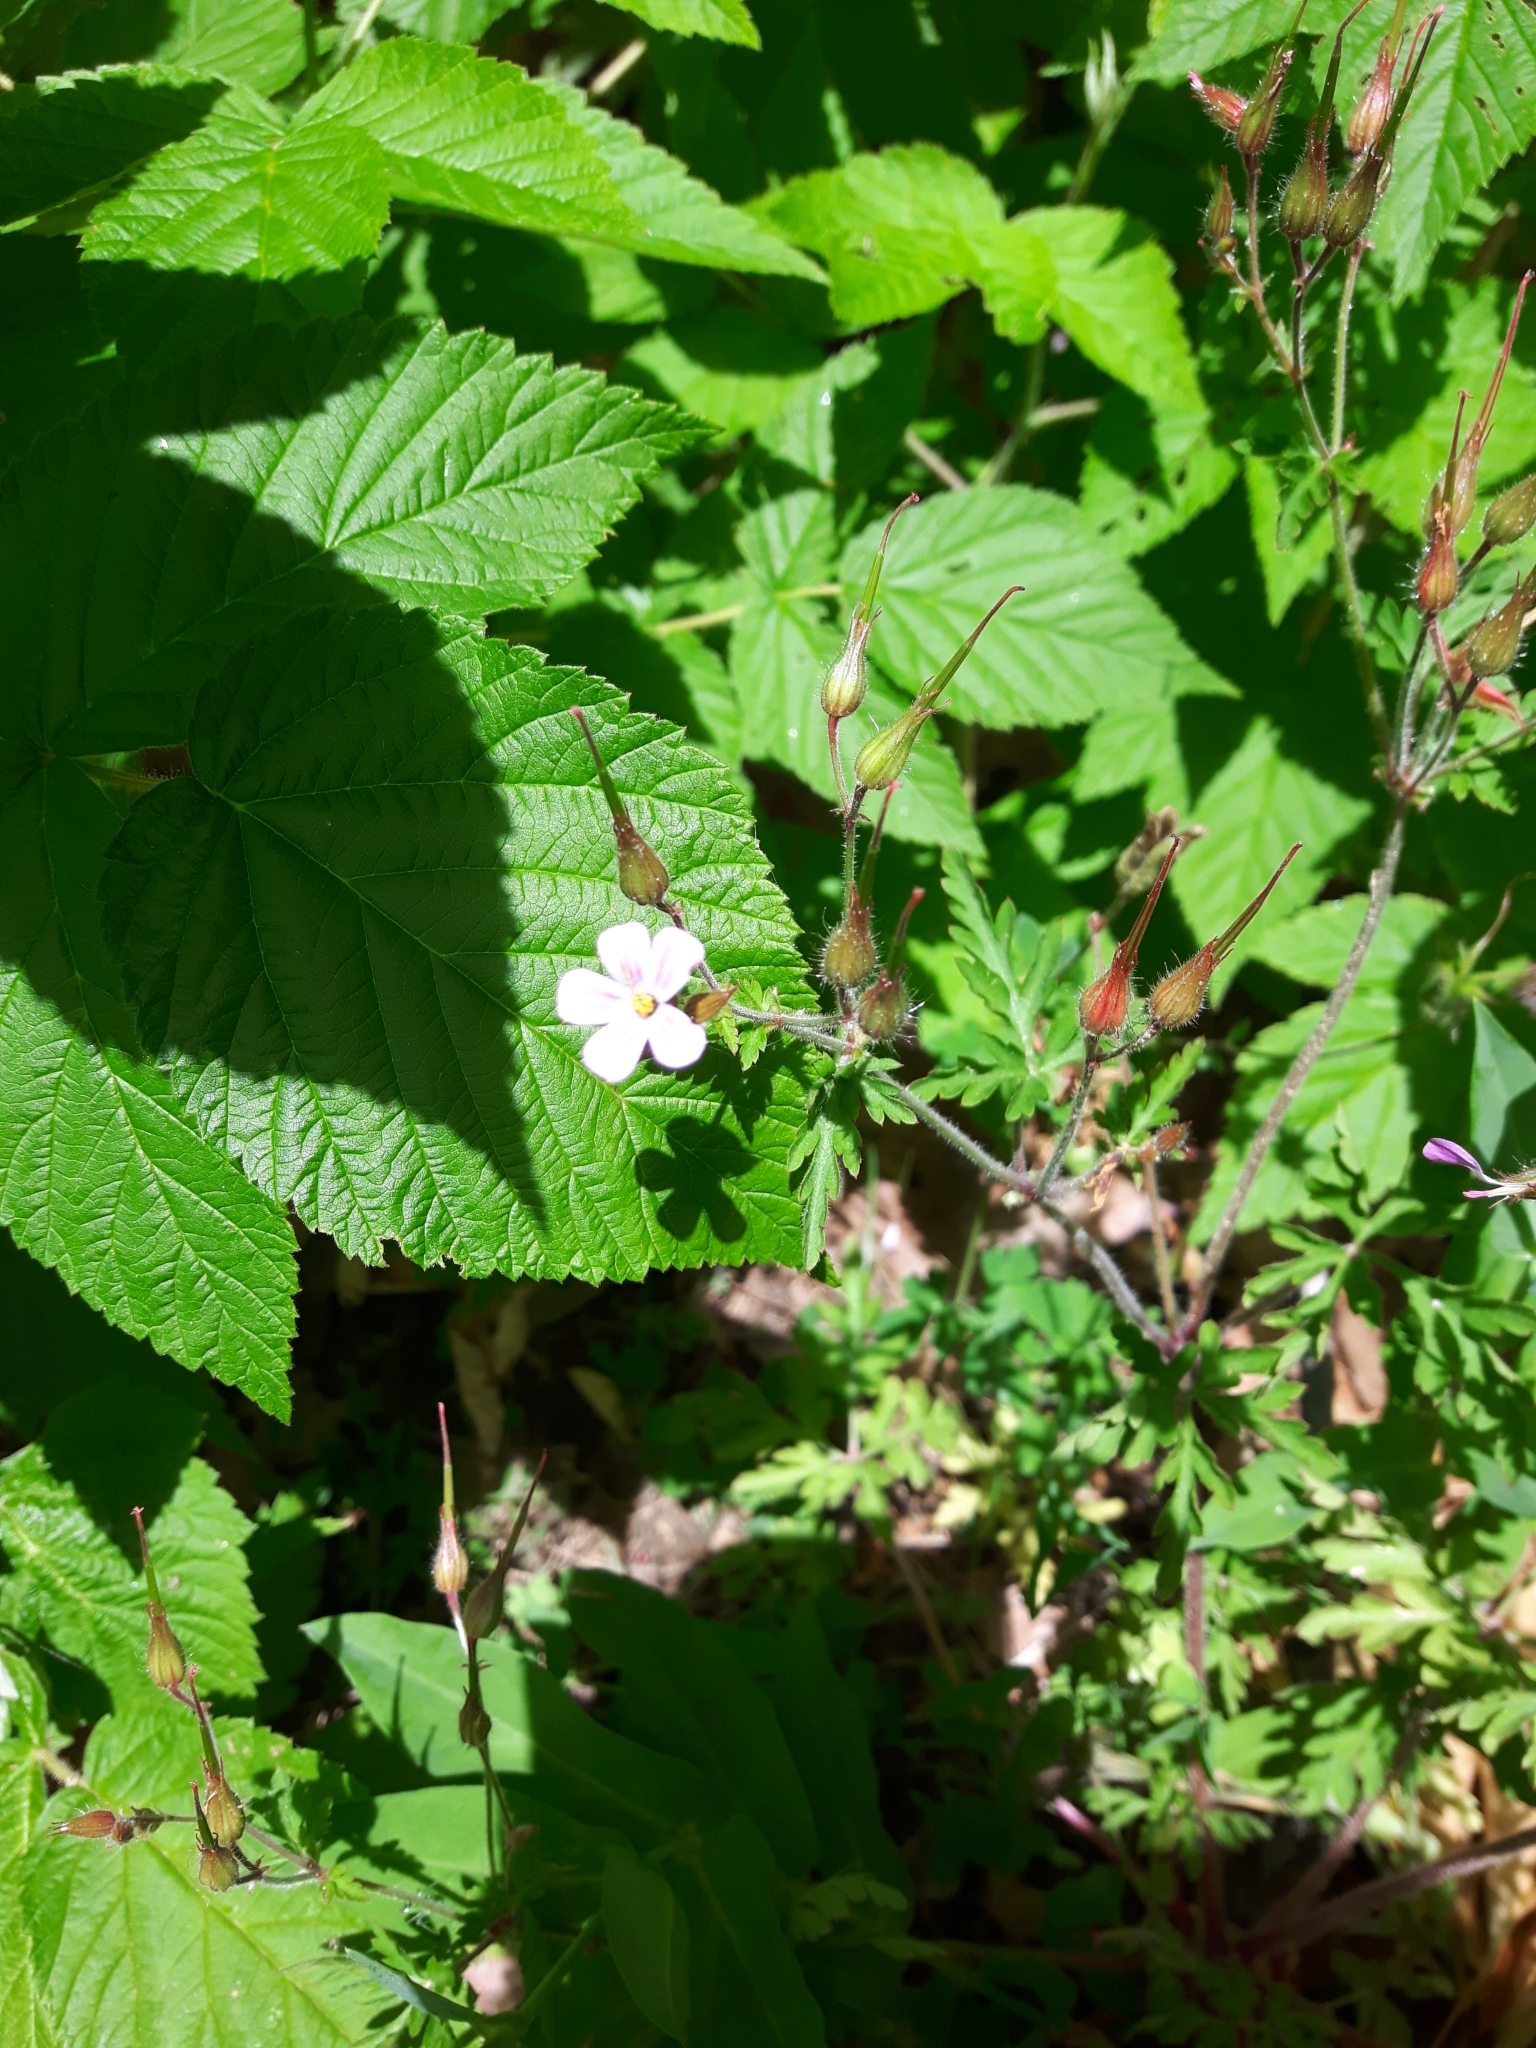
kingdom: Plantae
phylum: Tracheophyta
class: Magnoliopsida
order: Geraniales
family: Geraniaceae
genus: Geranium
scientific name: Geranium robertianum
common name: Herb-robert
